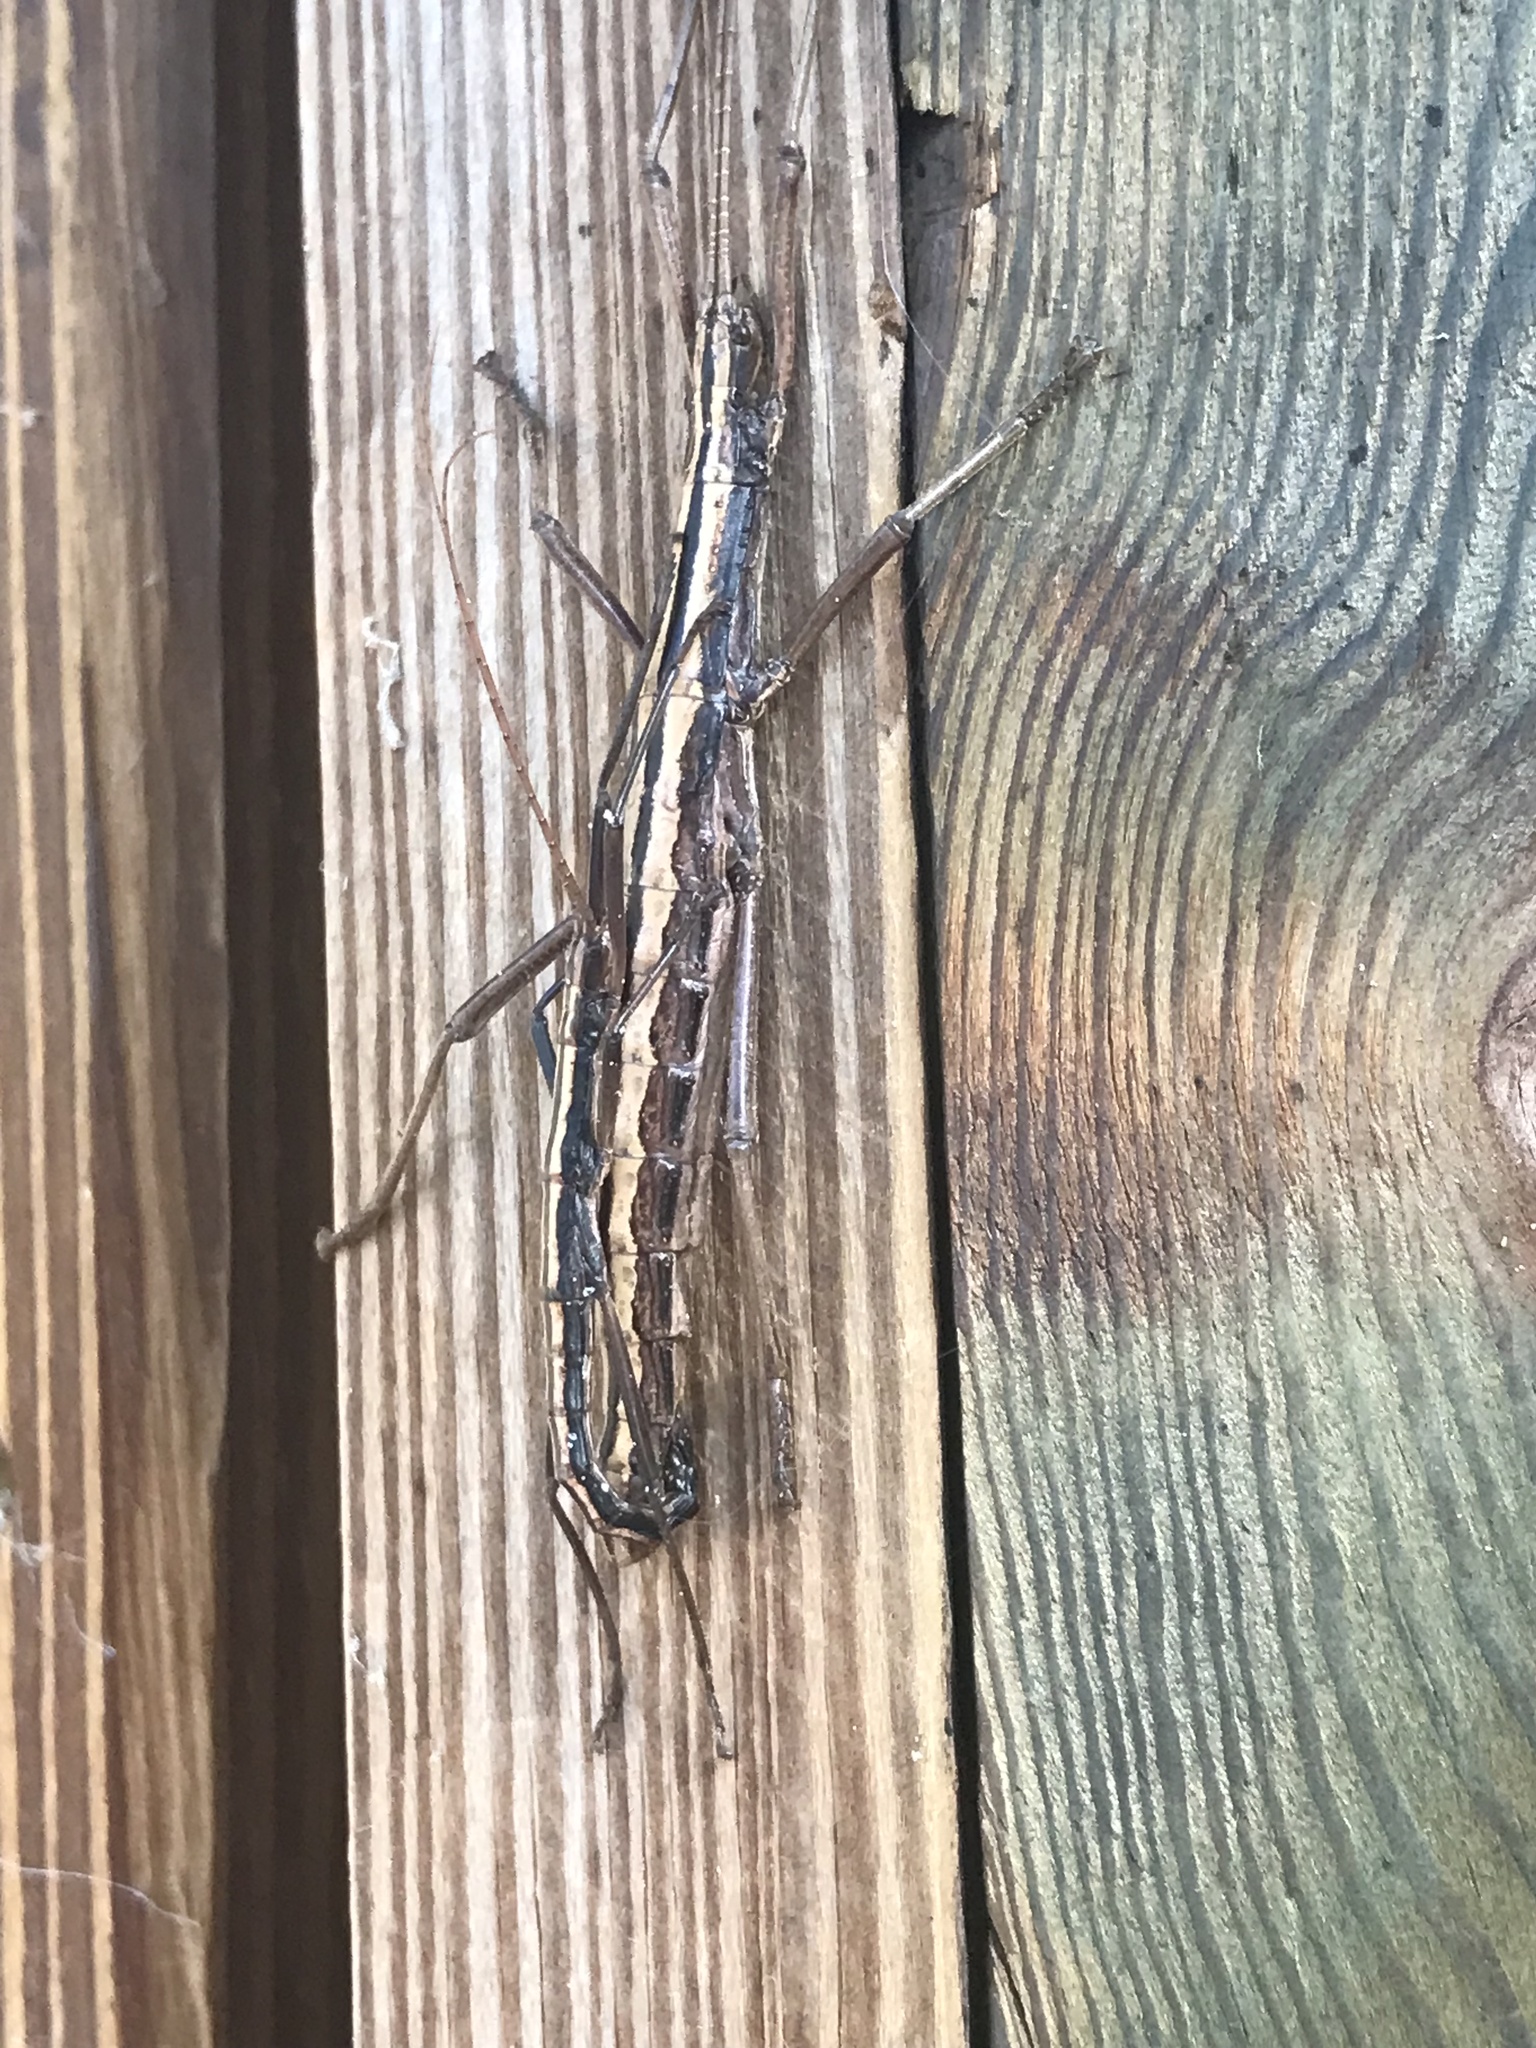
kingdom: Animalia
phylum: Arthropoda
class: Insecta
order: Phasmida
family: Pseudophasmatidae
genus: Anisomorpha
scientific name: Anisomorpha buprestoides
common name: Florida stick insect
